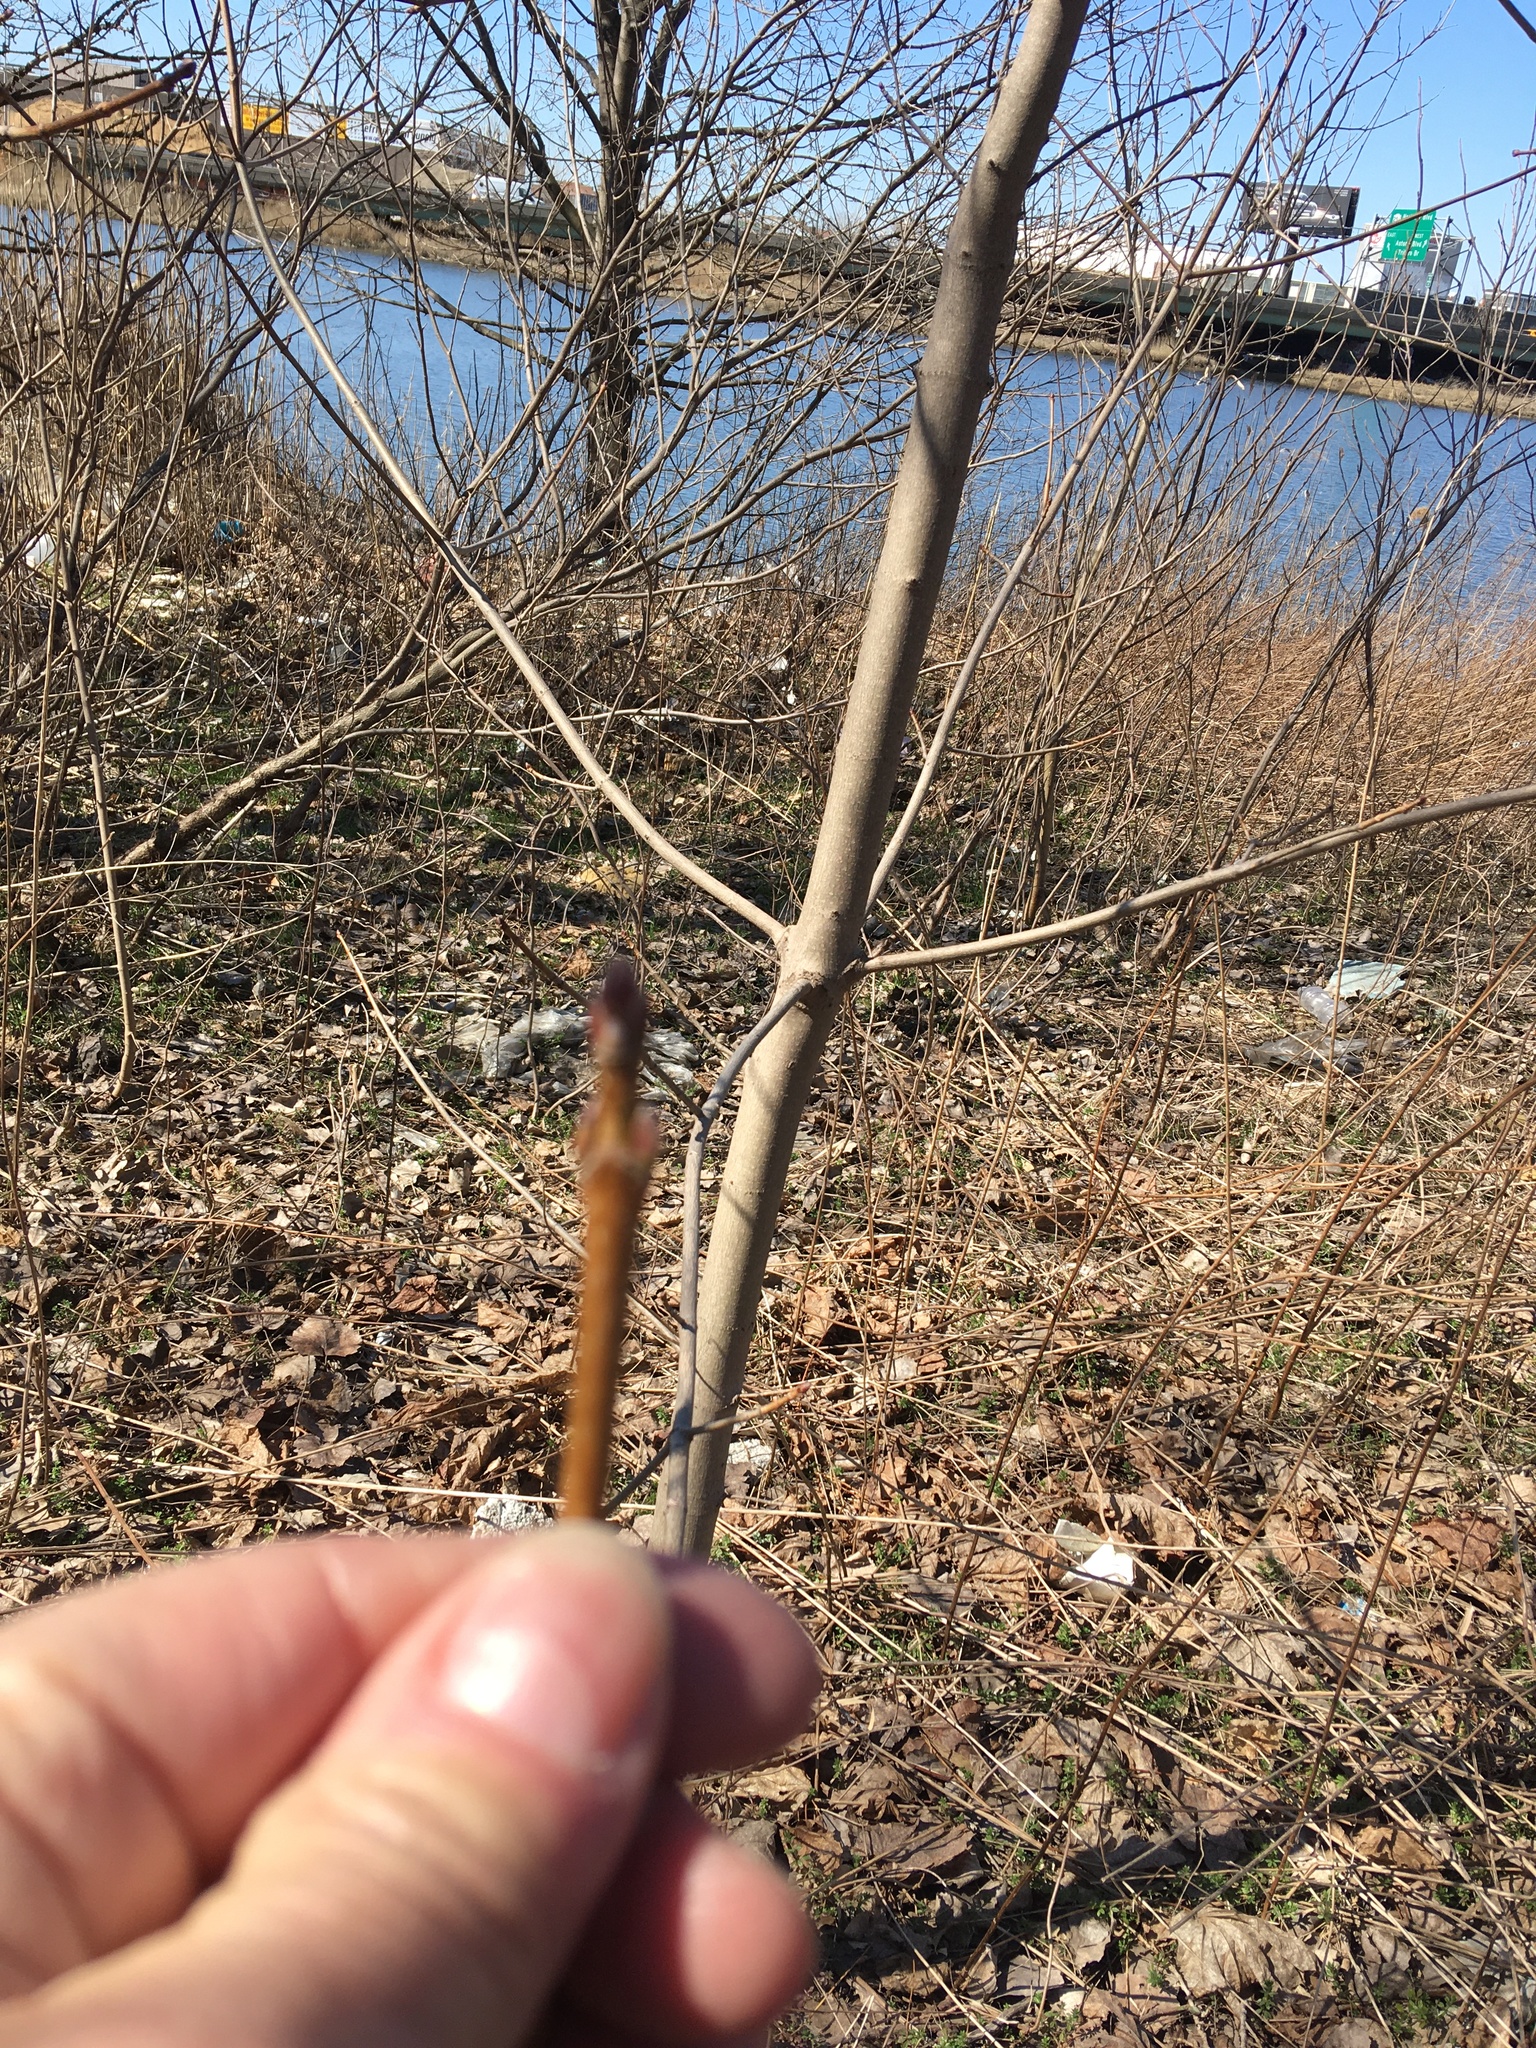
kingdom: Plantae
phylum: Tracheophyta
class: Magnoliopsida
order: Sapindales
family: Sapindaceae
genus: Acer
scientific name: Acer negundo
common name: Ashleaf maple
